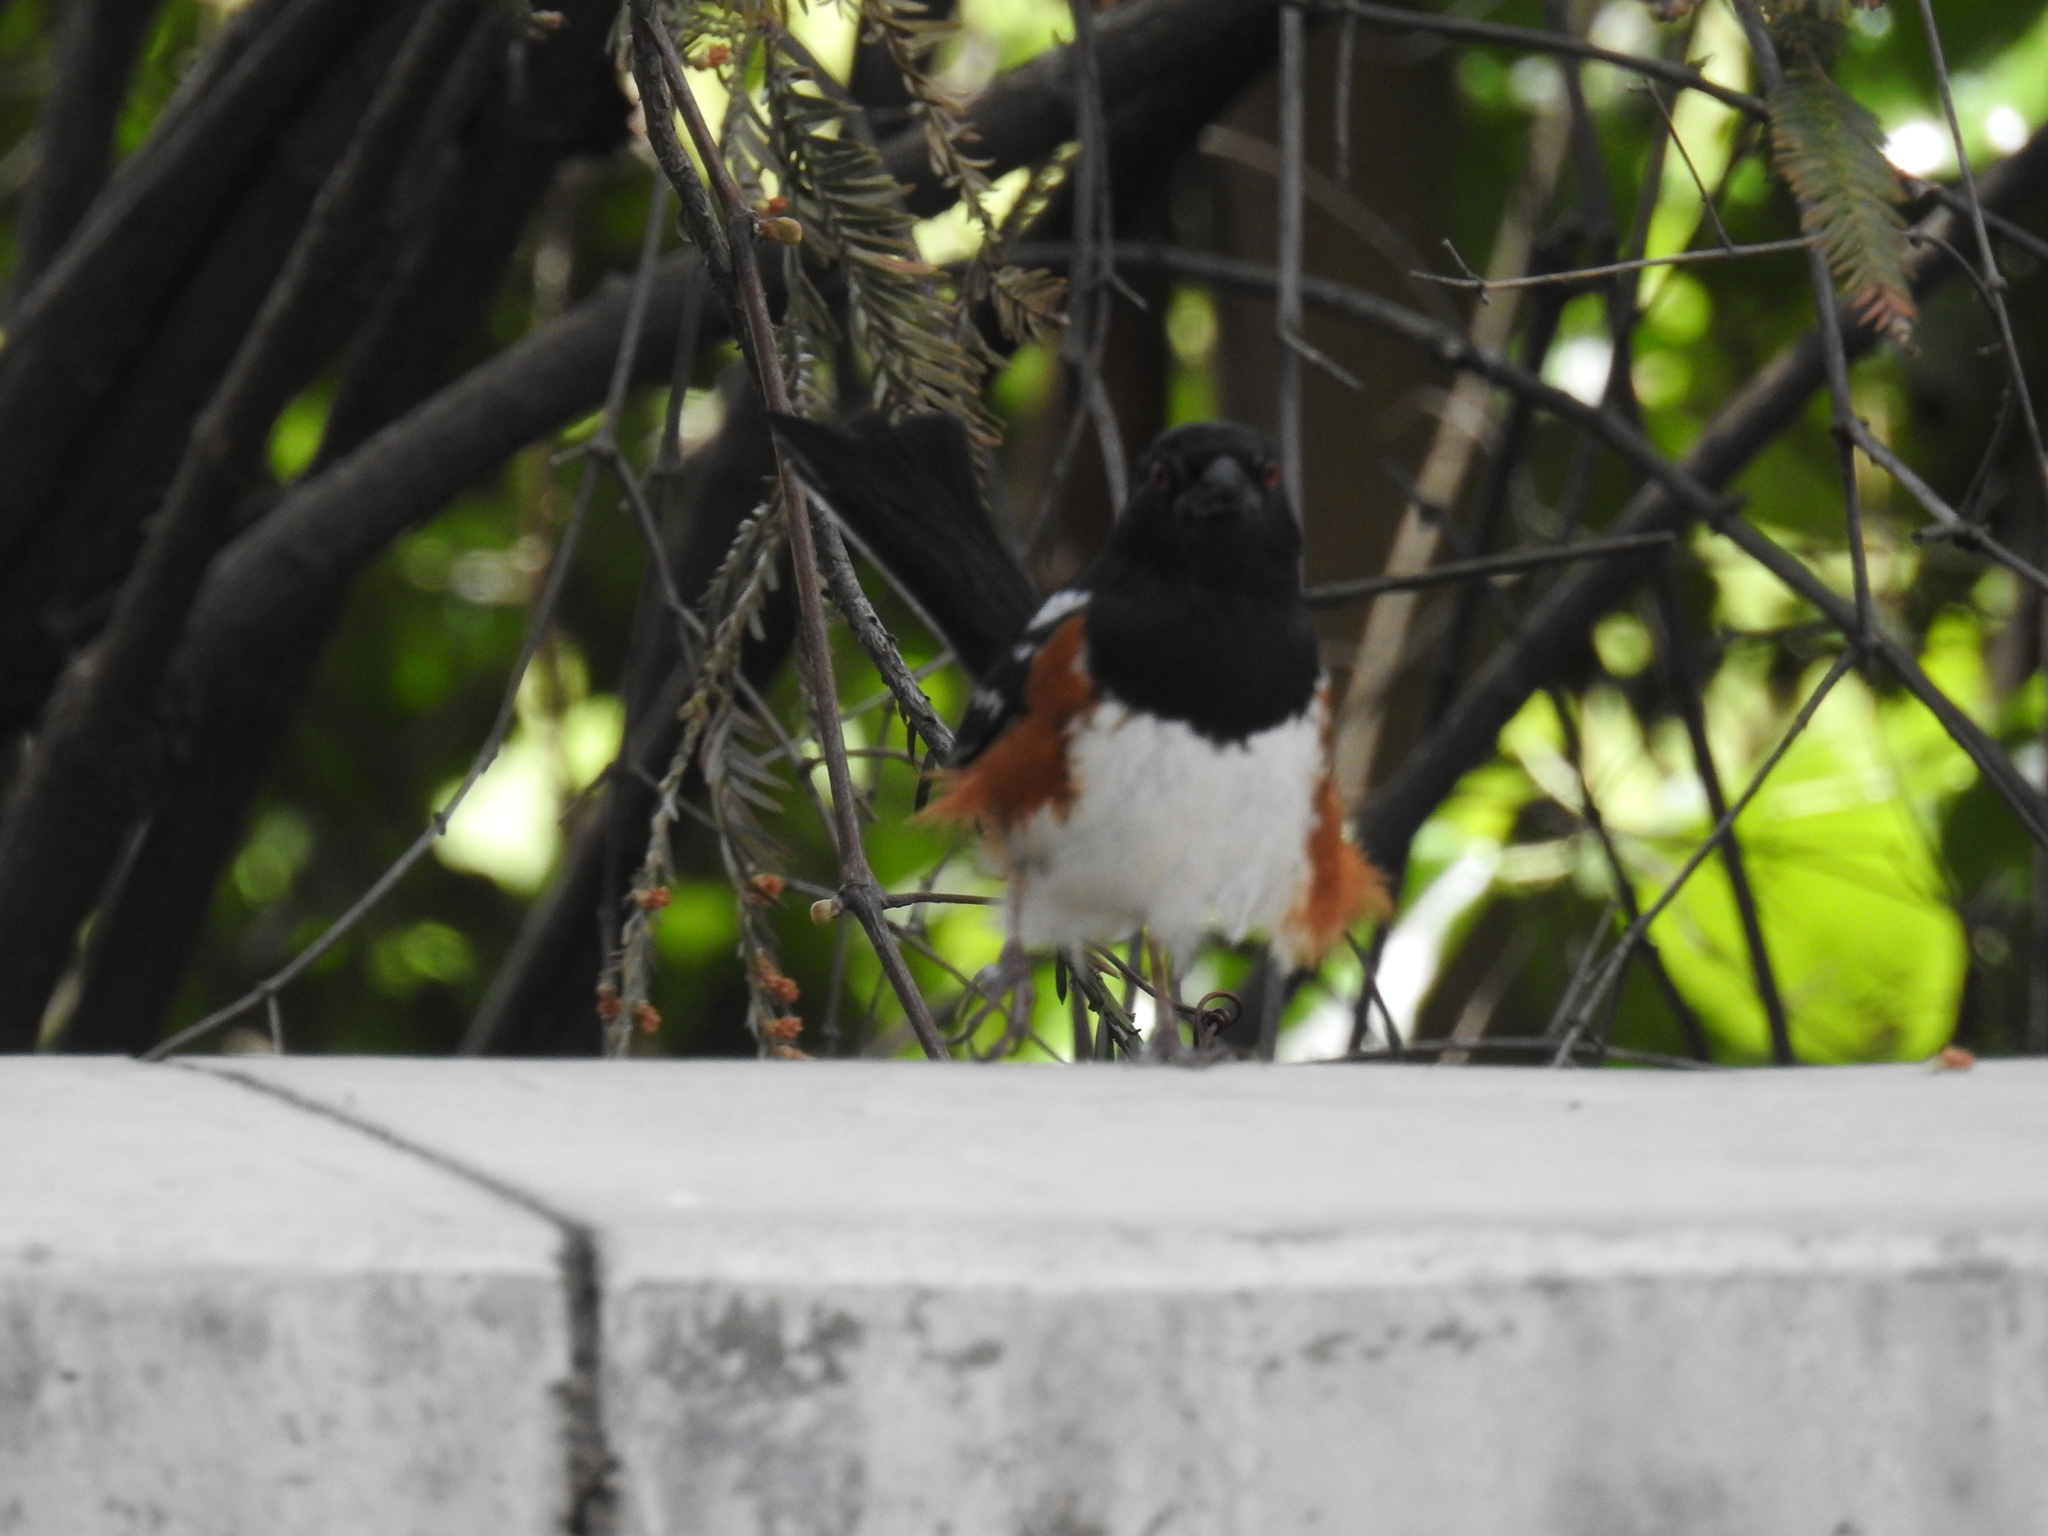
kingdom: Animalia
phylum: Chordata
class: Aves
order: Passeriformes
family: Passerellidae
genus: Pipilo
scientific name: Pipilo maculatus
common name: Spotted towhee
